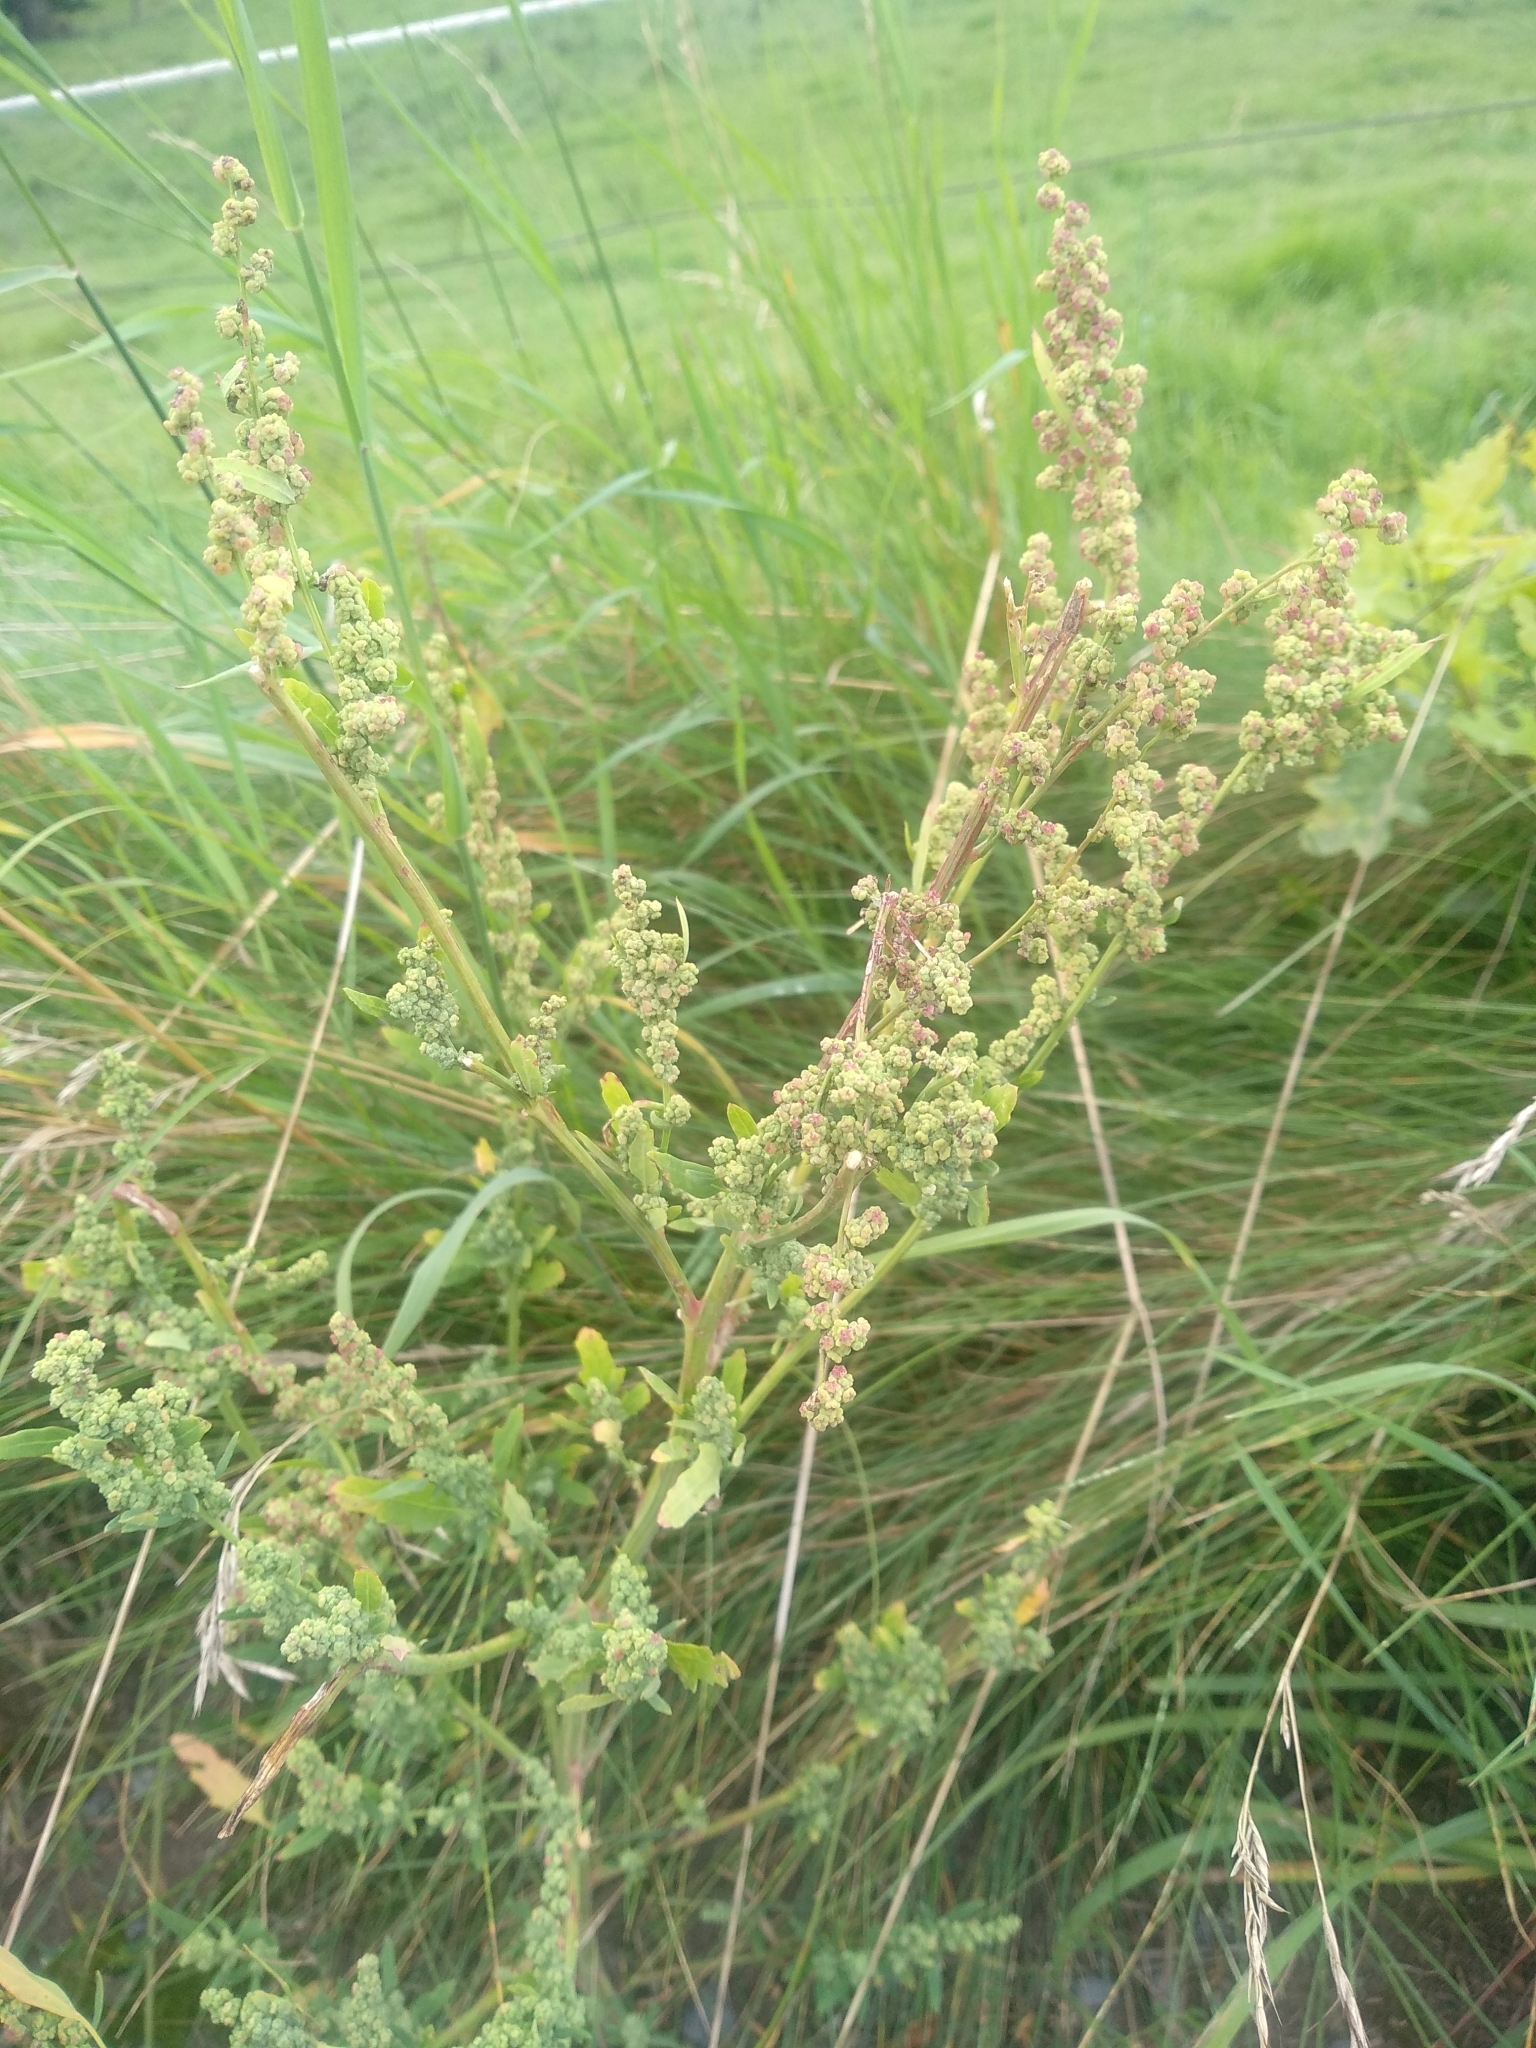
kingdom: Plantae
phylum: Tracheophyta
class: Magnoliopsida
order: Caryophyllales
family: Amaranthaceae
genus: Chenopodium
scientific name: Chenopodium album
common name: Fat-hen
